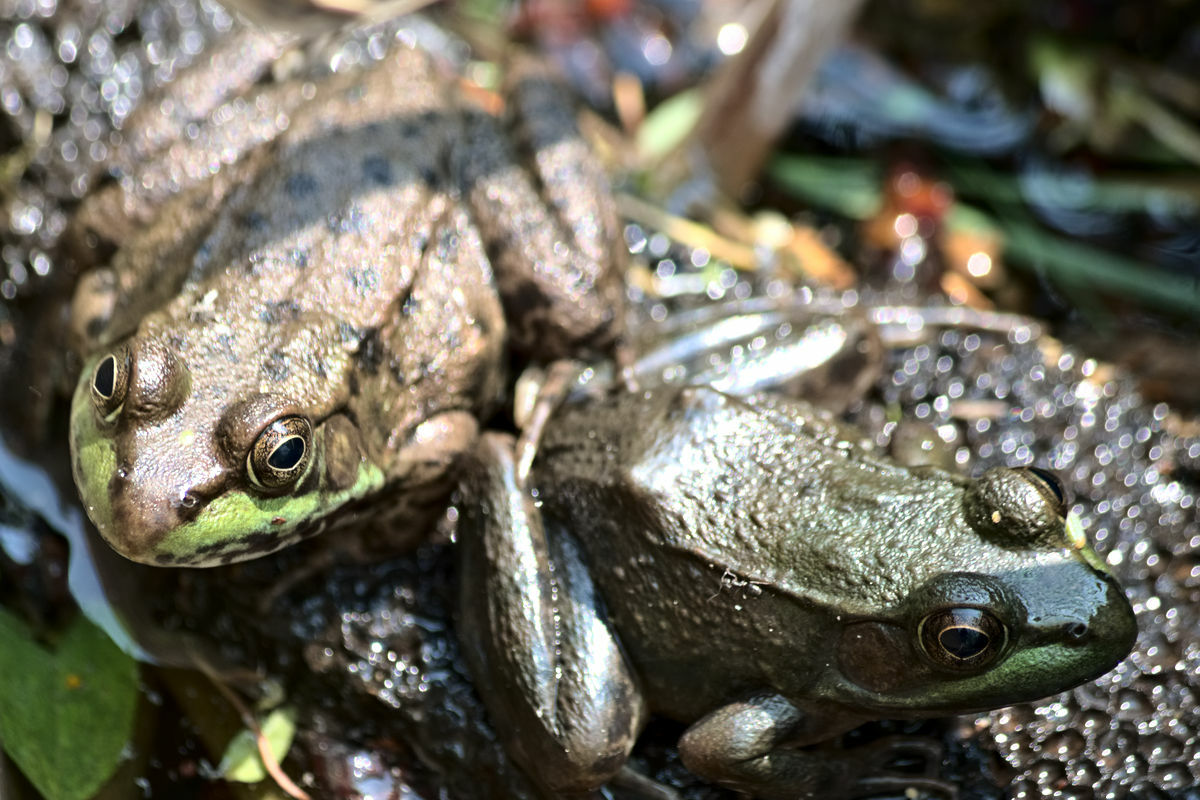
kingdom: Animalia
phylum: Chordata
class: Amphibia
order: Anura
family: Ranidae
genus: Lithobates
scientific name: Lithobates clamitans
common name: Green frog
